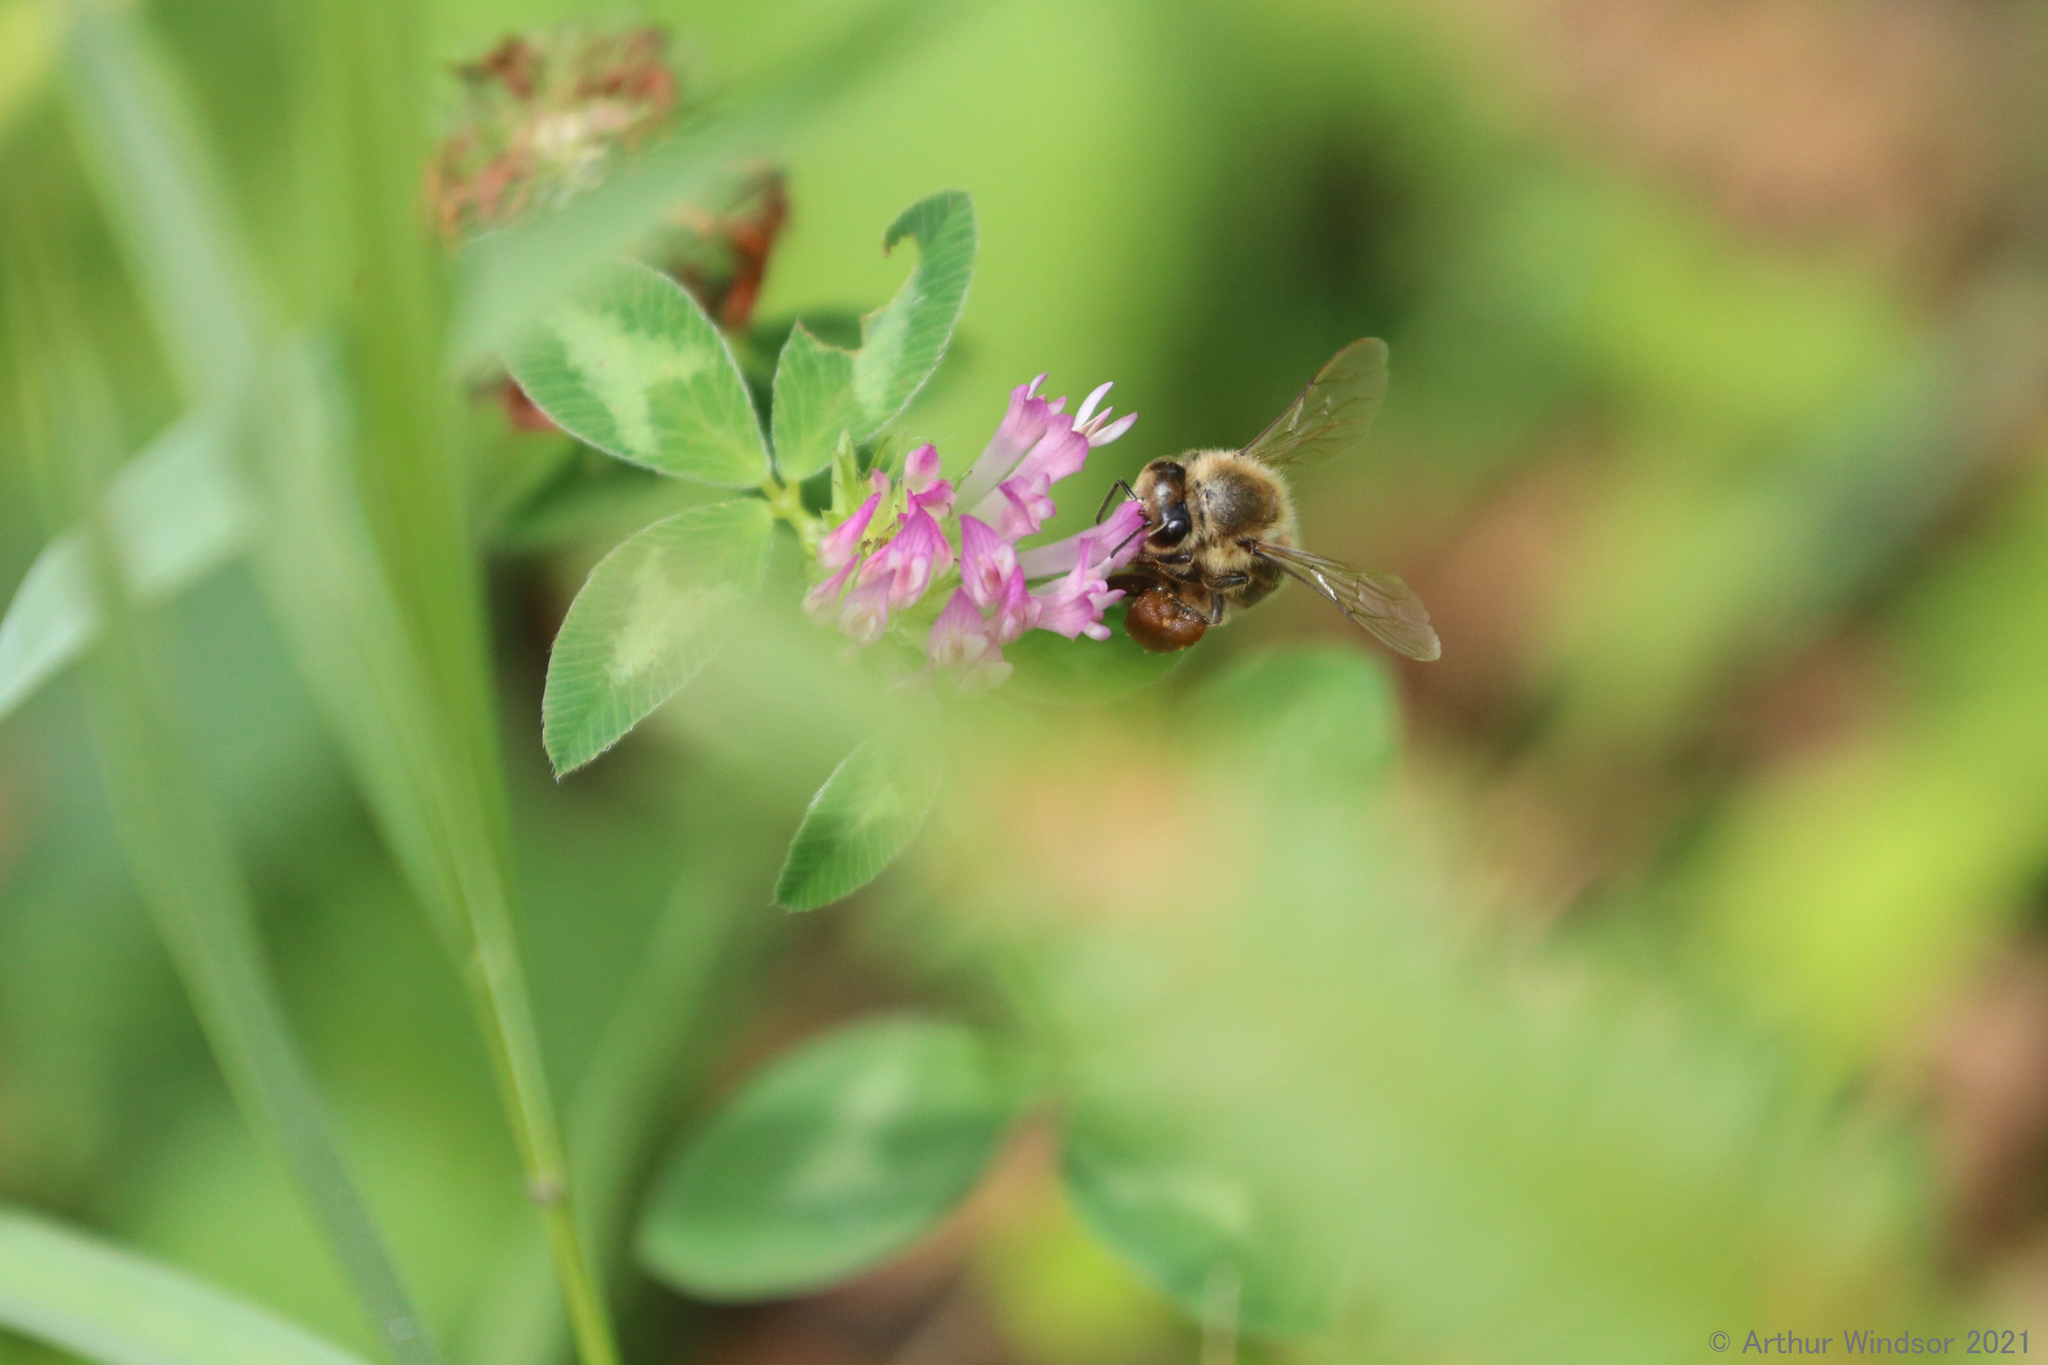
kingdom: Animalia
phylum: Arthropoda
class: Insecta
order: Hymenoptera
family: Apidae
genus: Apis
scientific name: Apis mellifera
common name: Honey bee
